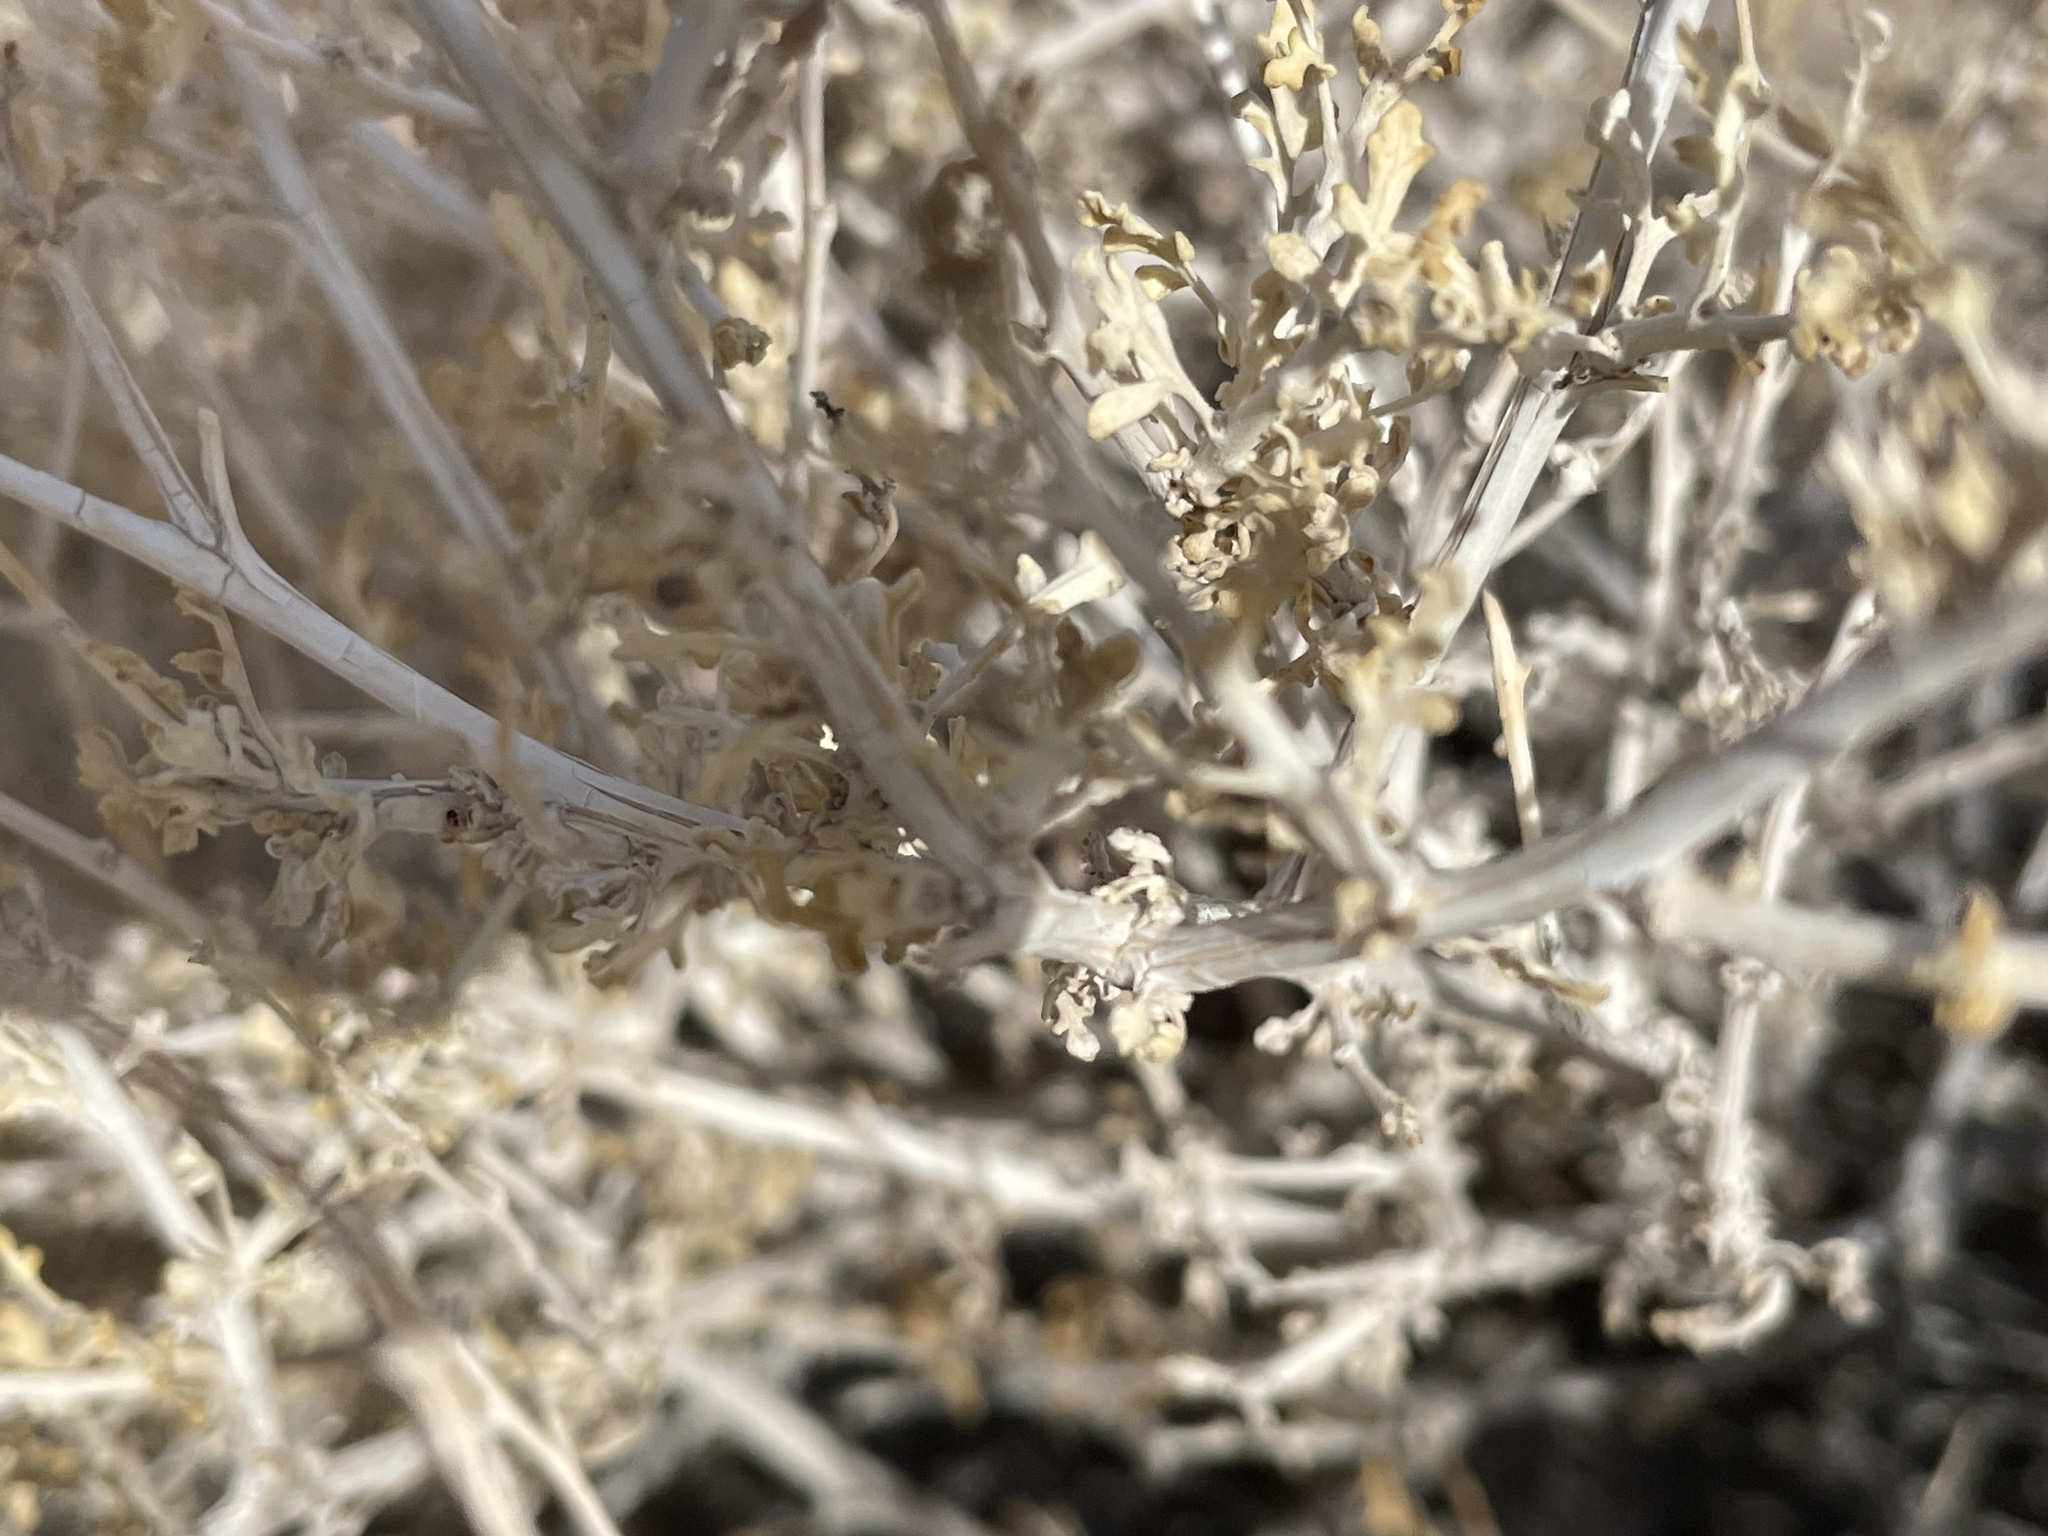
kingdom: Plantae
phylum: Tracheophyta
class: Magnoliopsida
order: Asterales
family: Asteraceae
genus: Ambrosia
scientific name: Ambrosia dumosa
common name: Bur-sage
